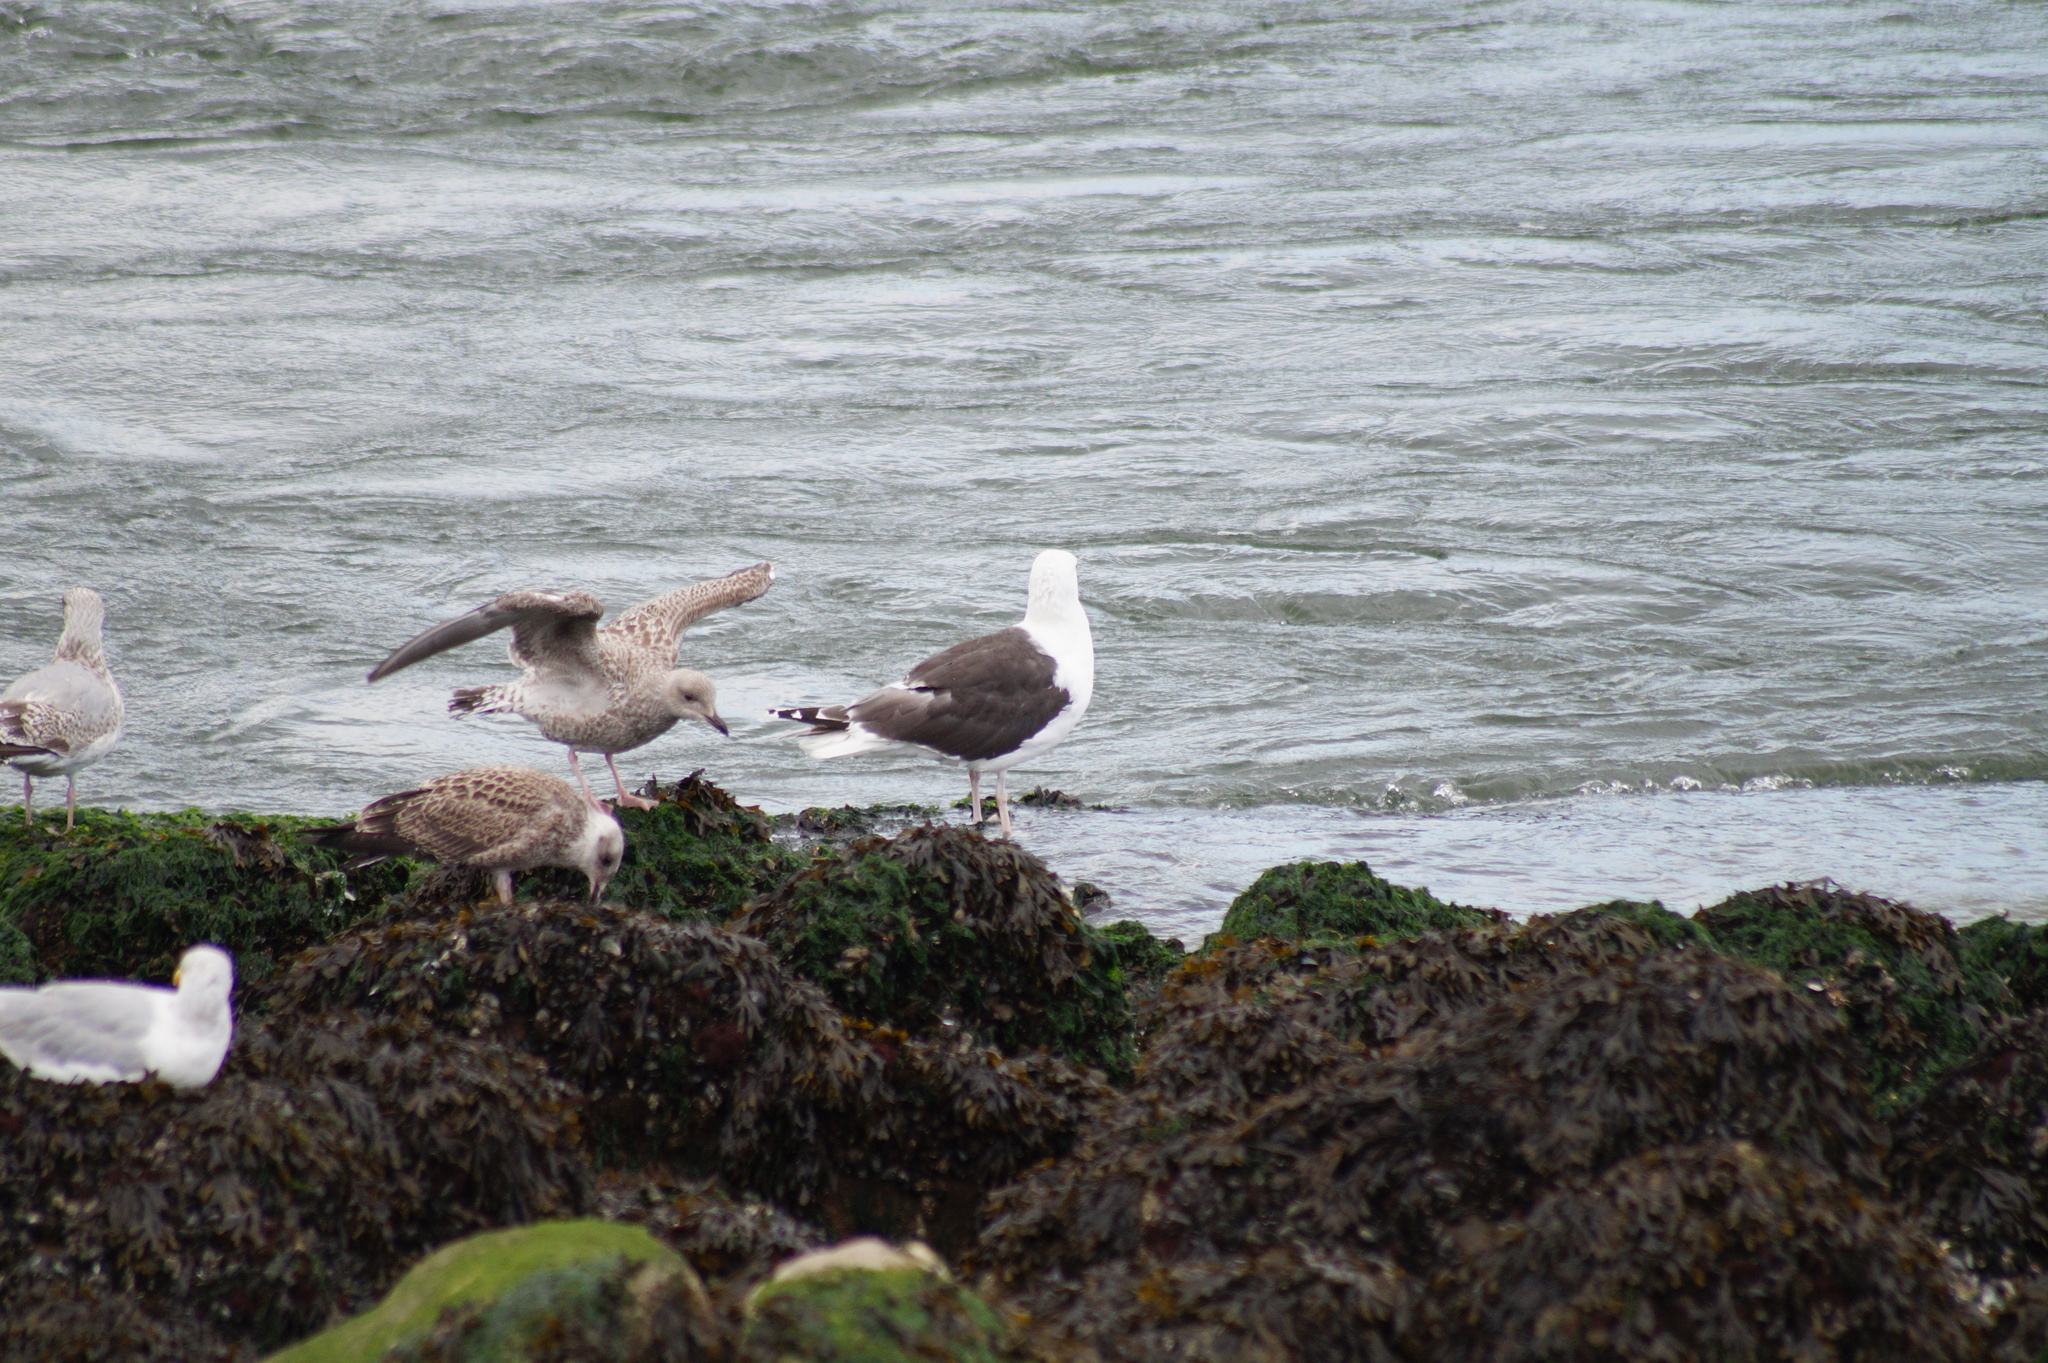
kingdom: Animalia
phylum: Chordata
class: Aves
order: Charadriiformes
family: Laridae
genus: Larus
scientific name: Larus marinus
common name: Great black-backed gull
